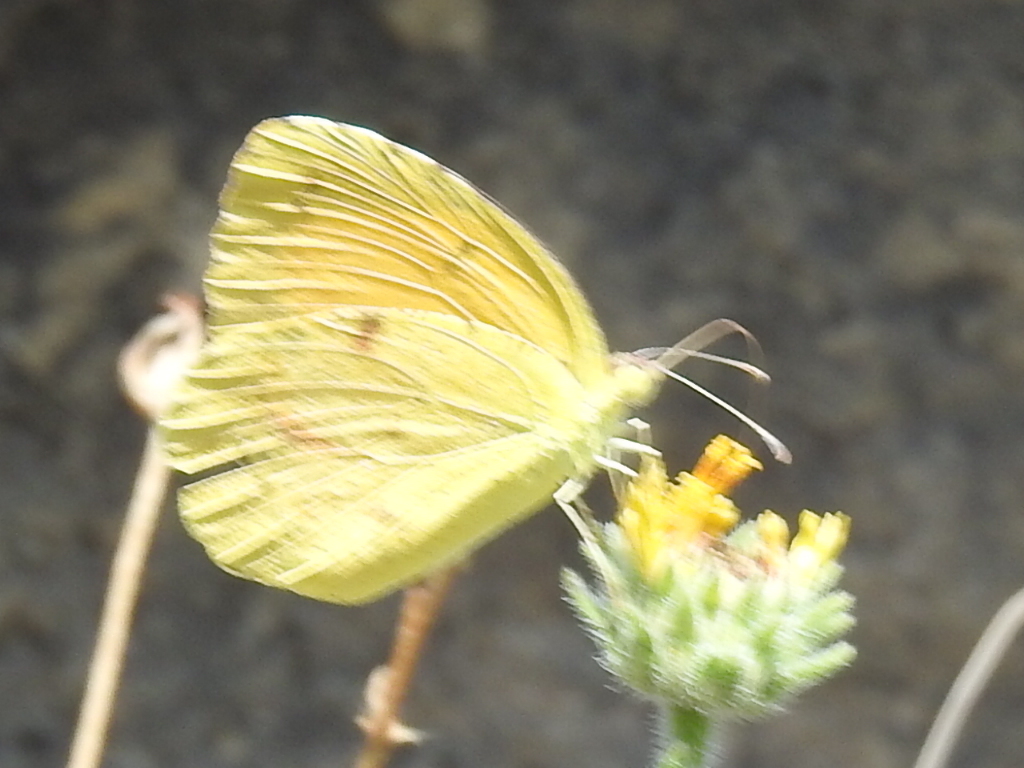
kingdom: Animalia
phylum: Arthropoda
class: Insecta
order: Lepidoptera
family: Pieridae
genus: Abaeis
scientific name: Abaeis nicippe
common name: Sleepy orange
